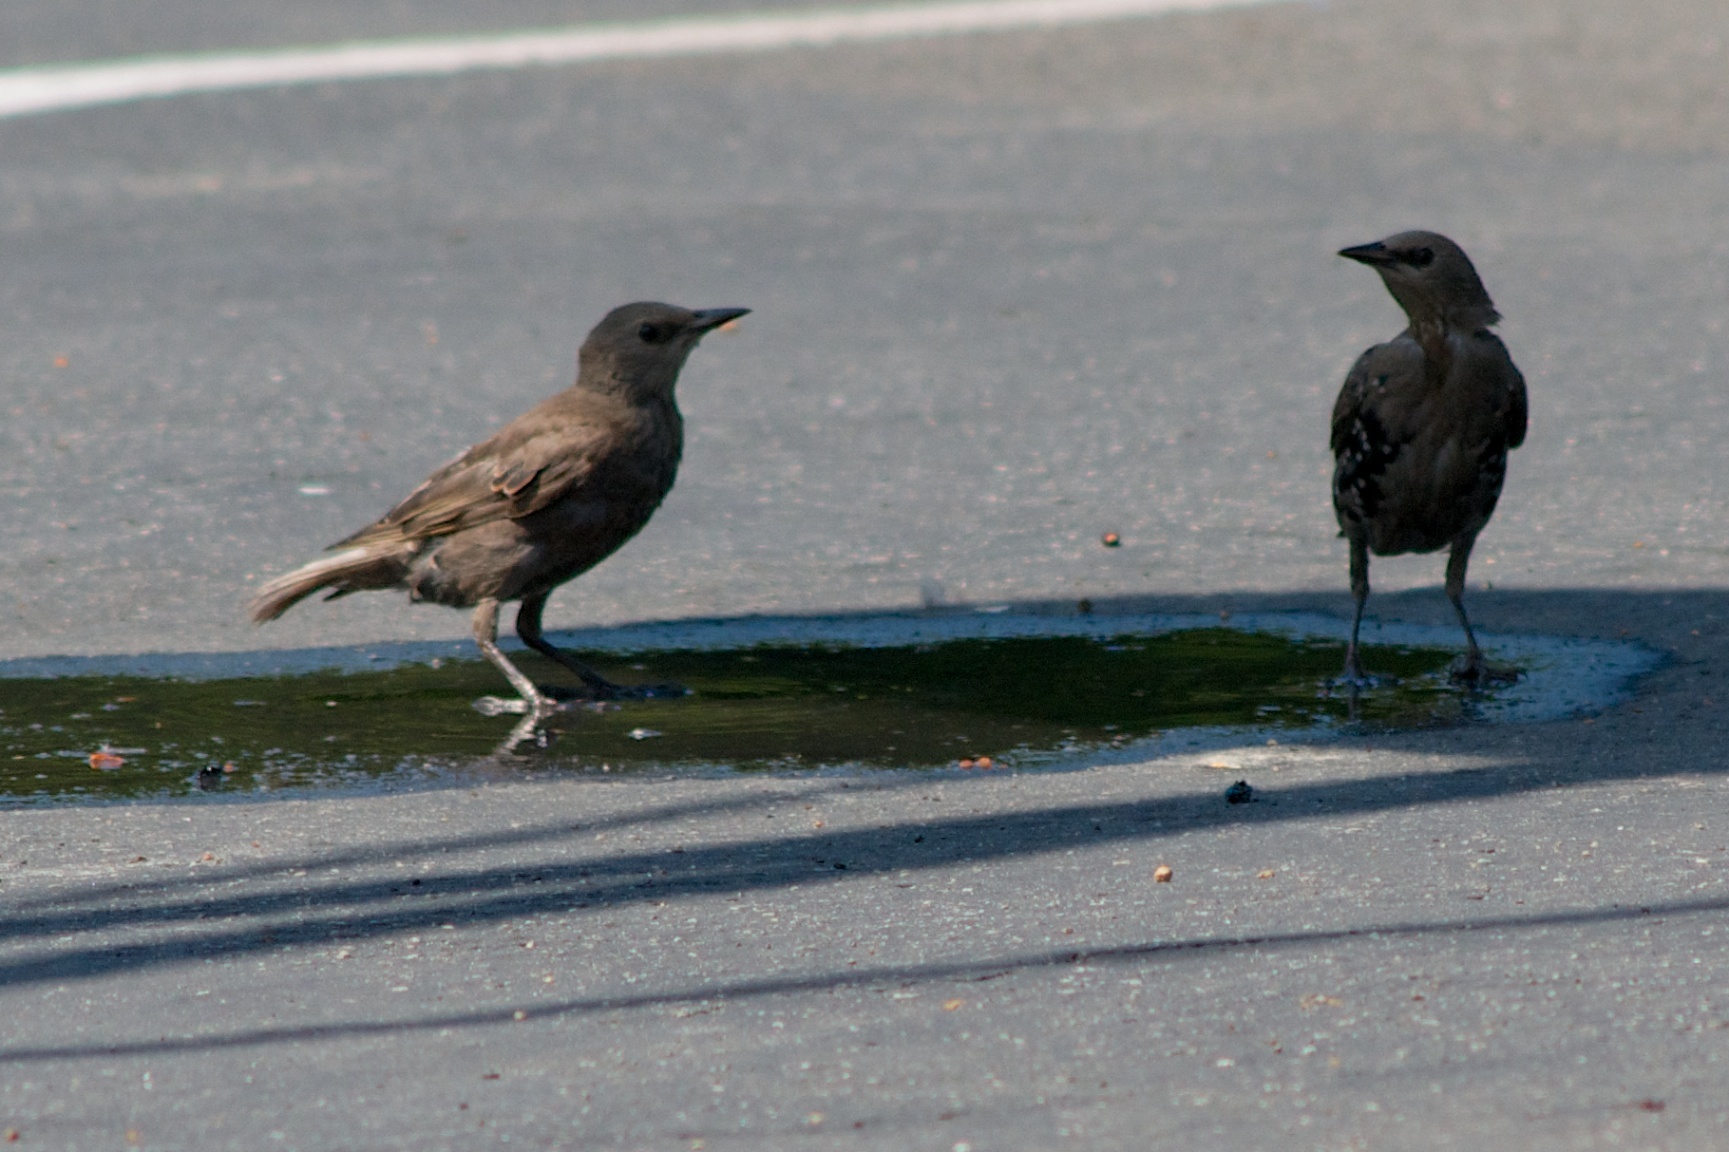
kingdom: Animalia
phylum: Chordata
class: Aves
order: Passeriformes
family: Sturnidae
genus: Sturnus
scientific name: Sturnus vulgaris
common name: Common starling
